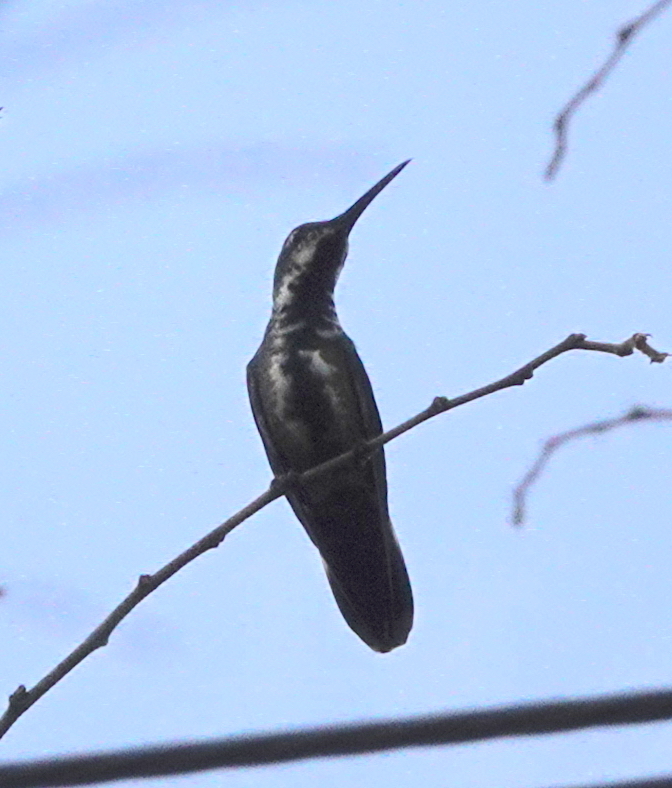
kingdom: Animalia
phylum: Chordata
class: Aves
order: Apodiformes
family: Trochilidae
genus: Anthracothorax
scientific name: Anthracothorax prevostii
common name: Green-breasted mango
